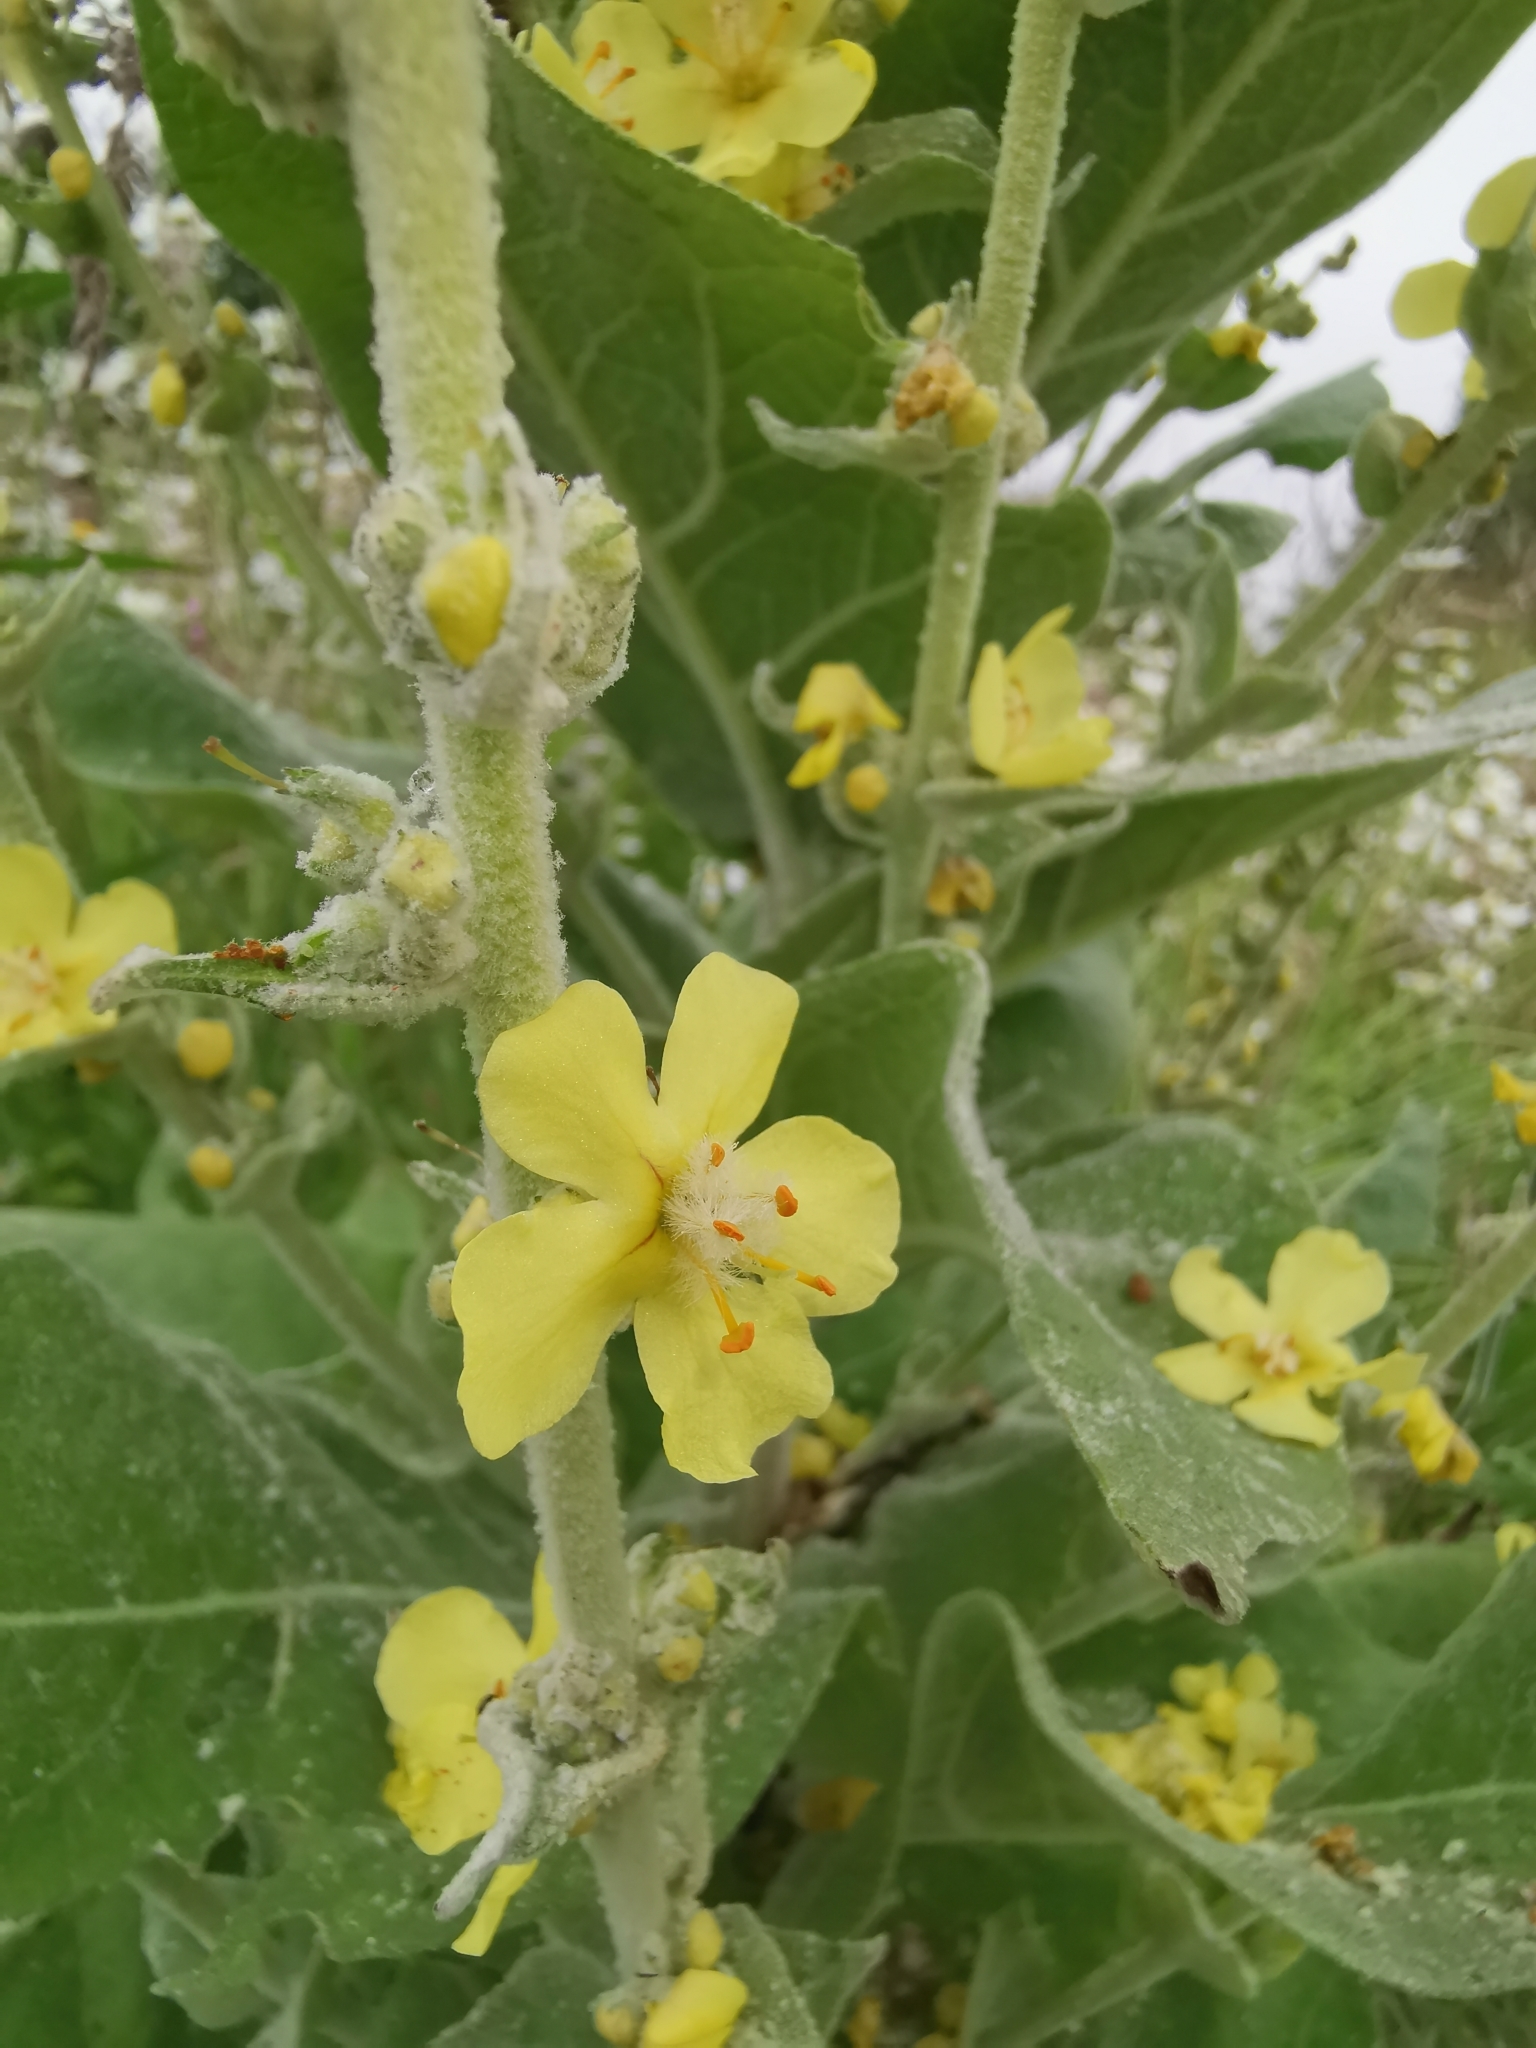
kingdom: Plantae
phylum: Tracheophyta
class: Magnoliopsida
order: Lamiales
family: Scrophulariaceae
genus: Verbascum
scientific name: Verbascum pulverulentum
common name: Broad-leaf mullein
